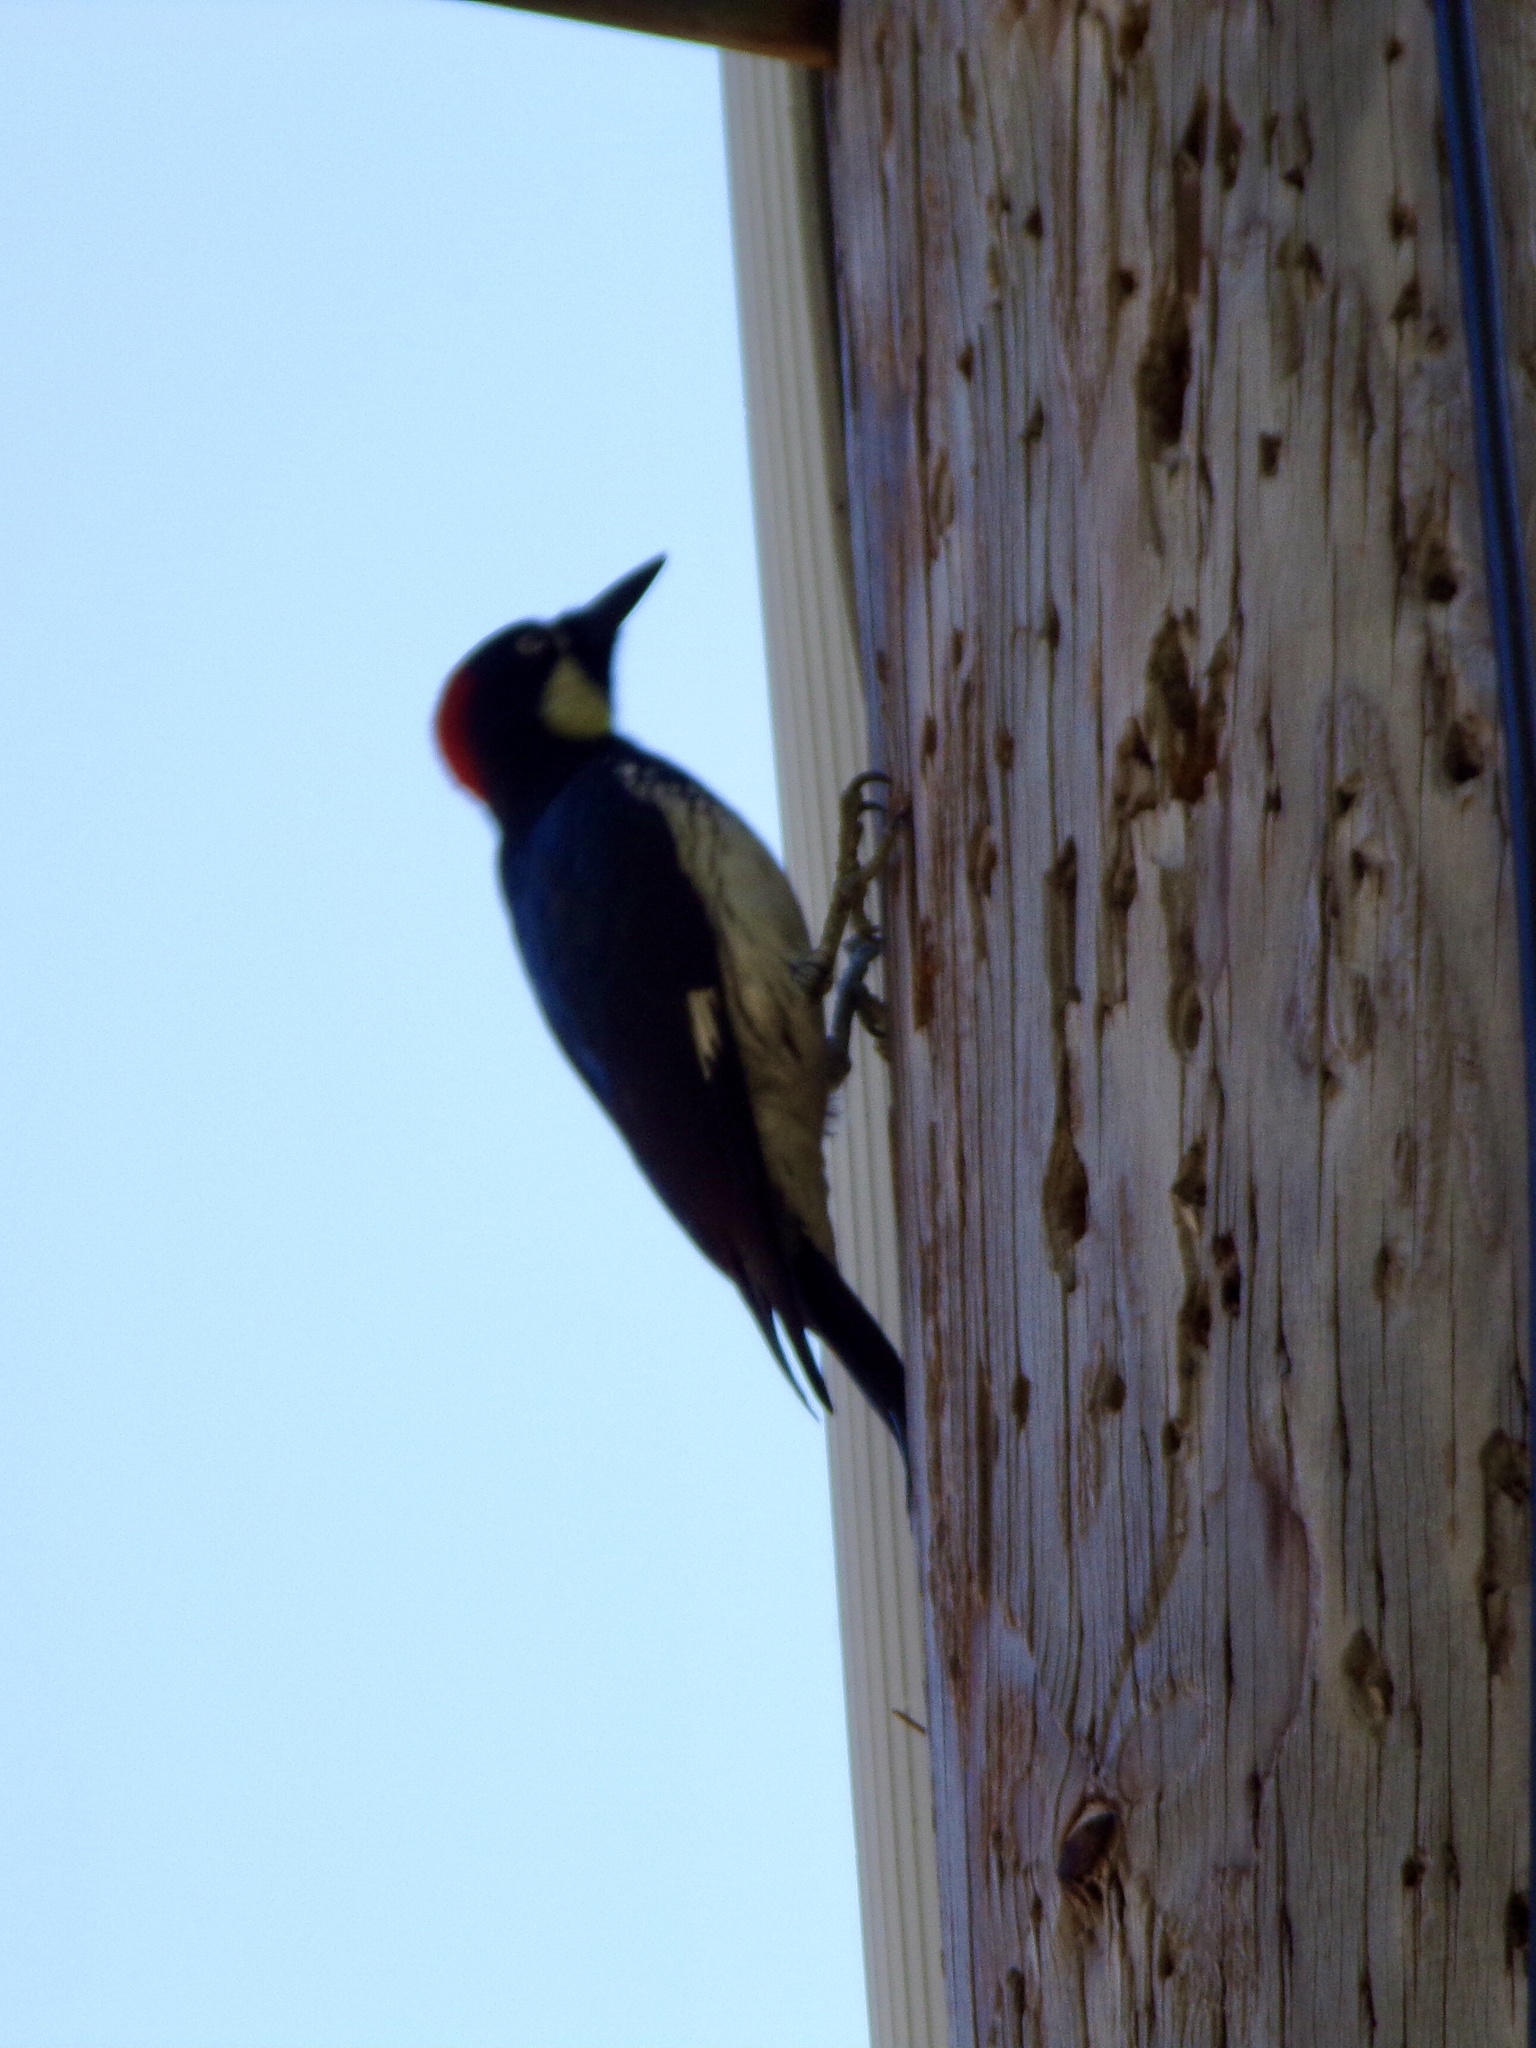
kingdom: Animalia
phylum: Chordata
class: Aves
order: Piciformes
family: Picidae
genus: Melanerpes
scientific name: Melanerpes formicivorus
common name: Acorn woodpecker
